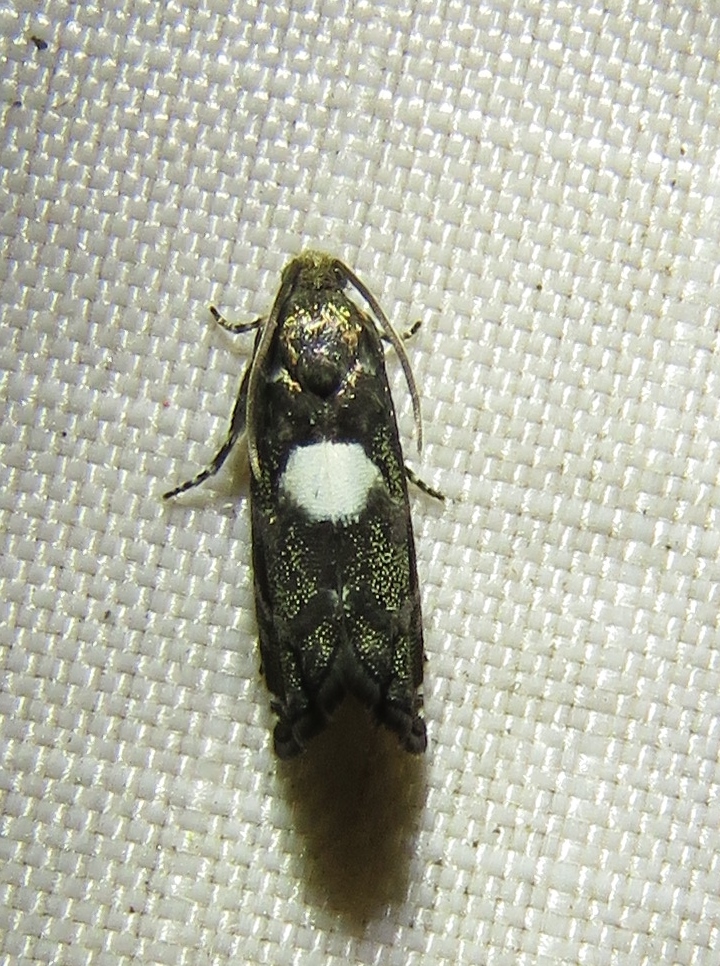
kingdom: Animalia
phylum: Arthropoda
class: Insecta
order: Lepidoptera
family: Tortricidae
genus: Cydia
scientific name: Cydia albimaculana
